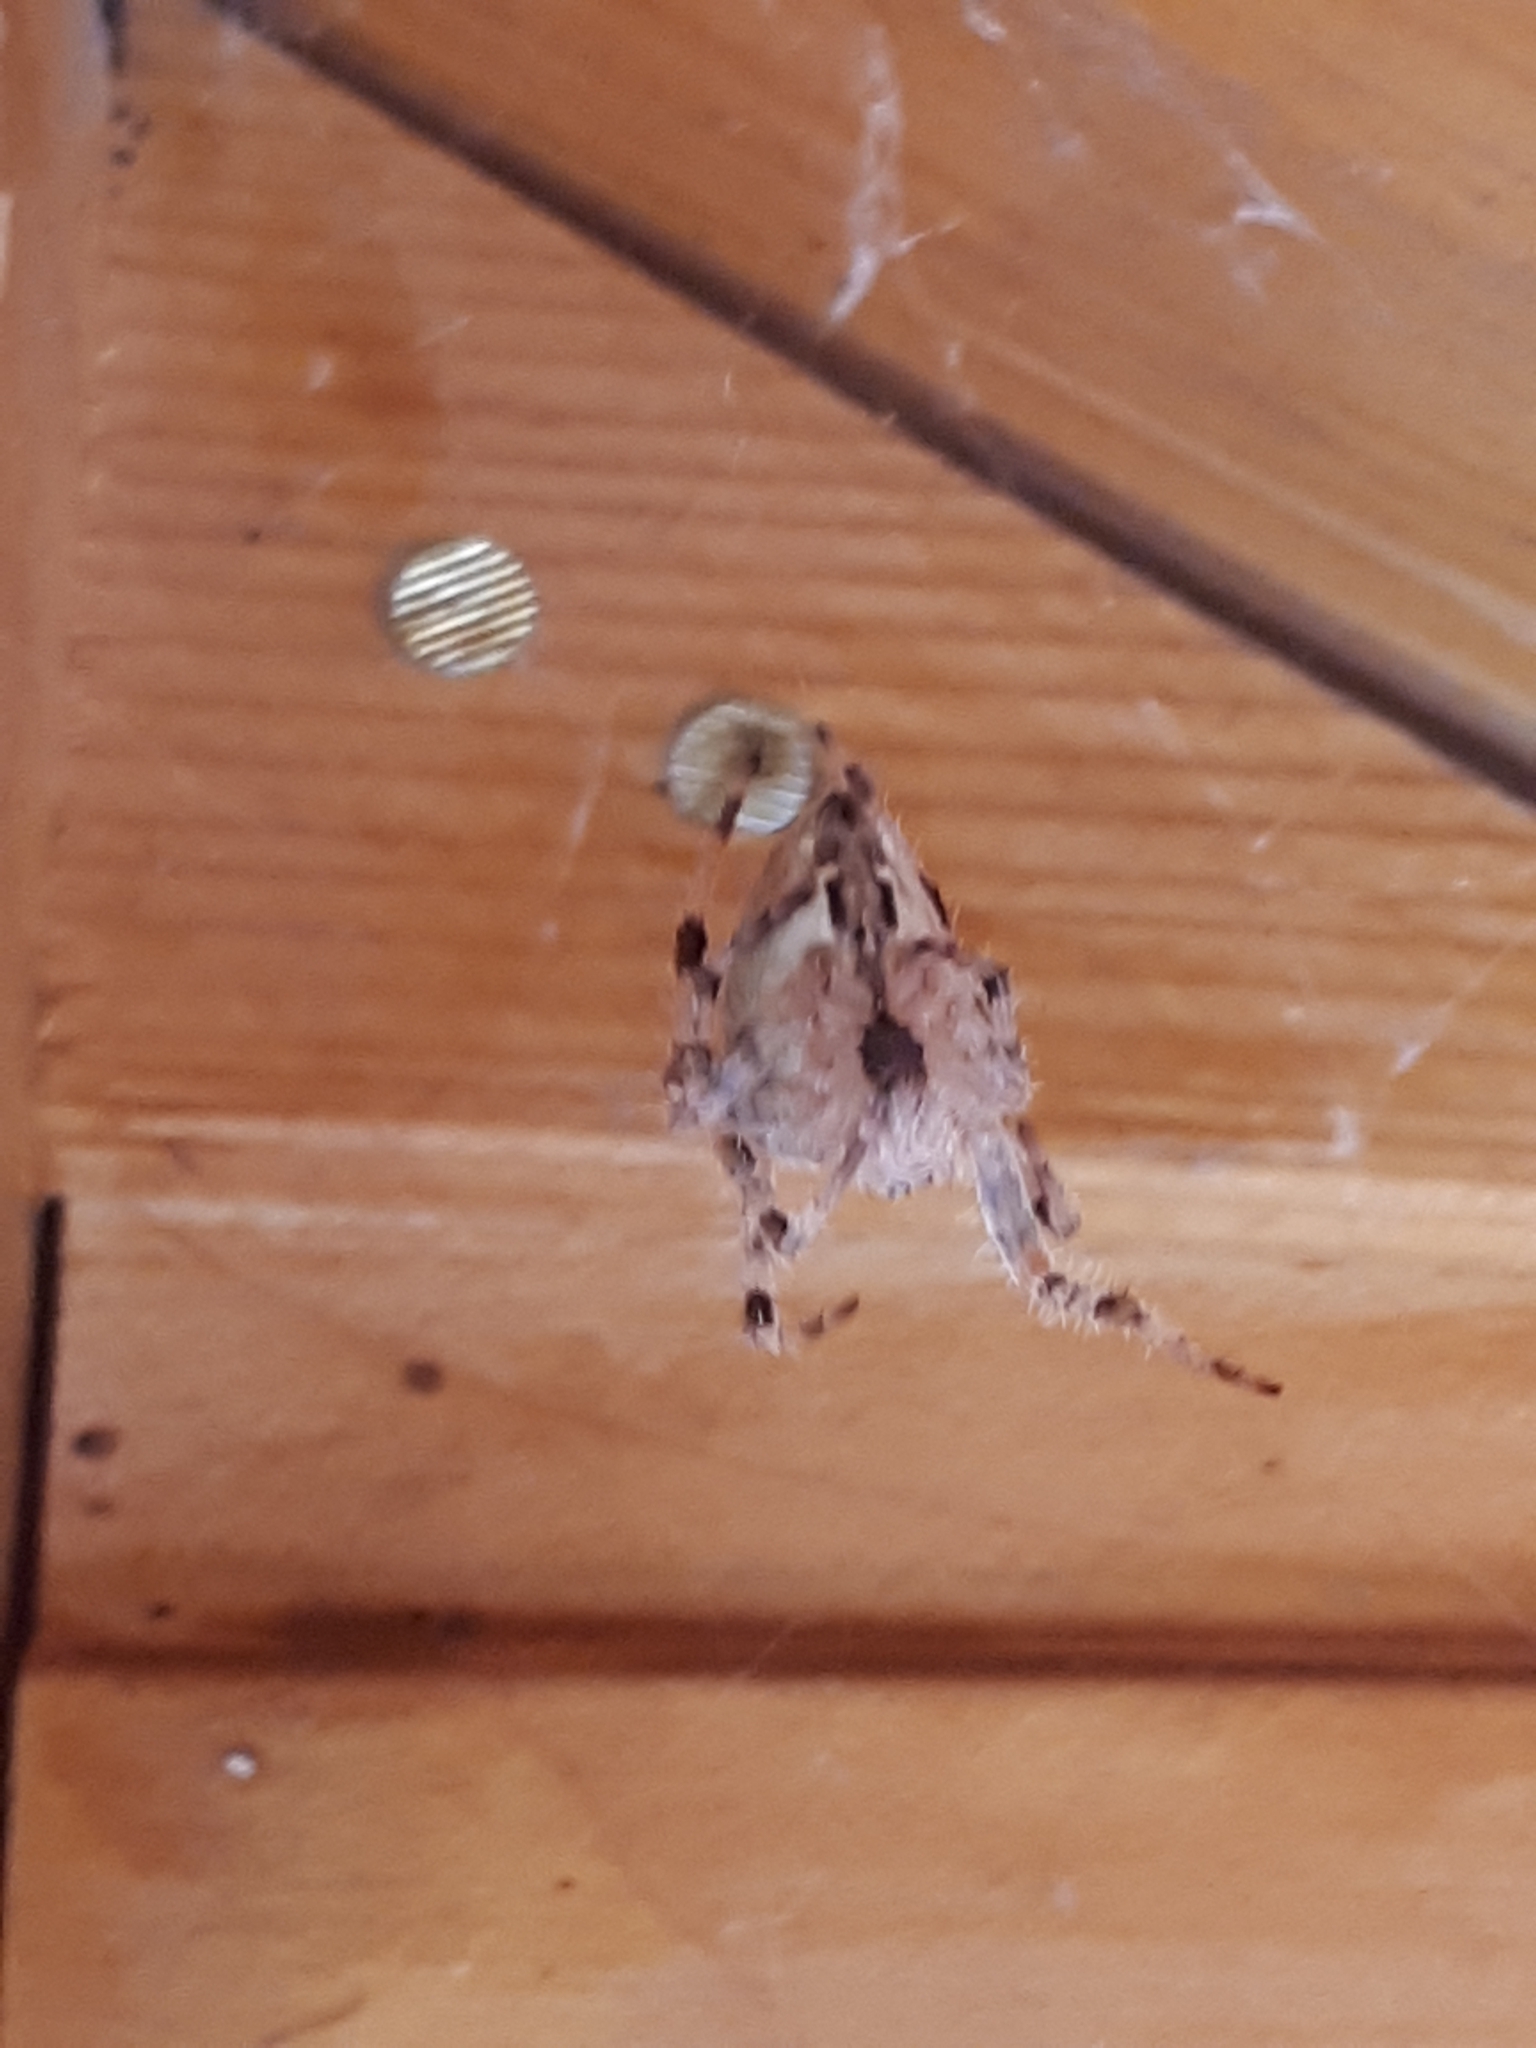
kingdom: Animalia
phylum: Arthropoda
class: Arachnida
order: Araneae
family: Araneidae
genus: Araneus
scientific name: Araneus diadematus
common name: Cross orbweaver
